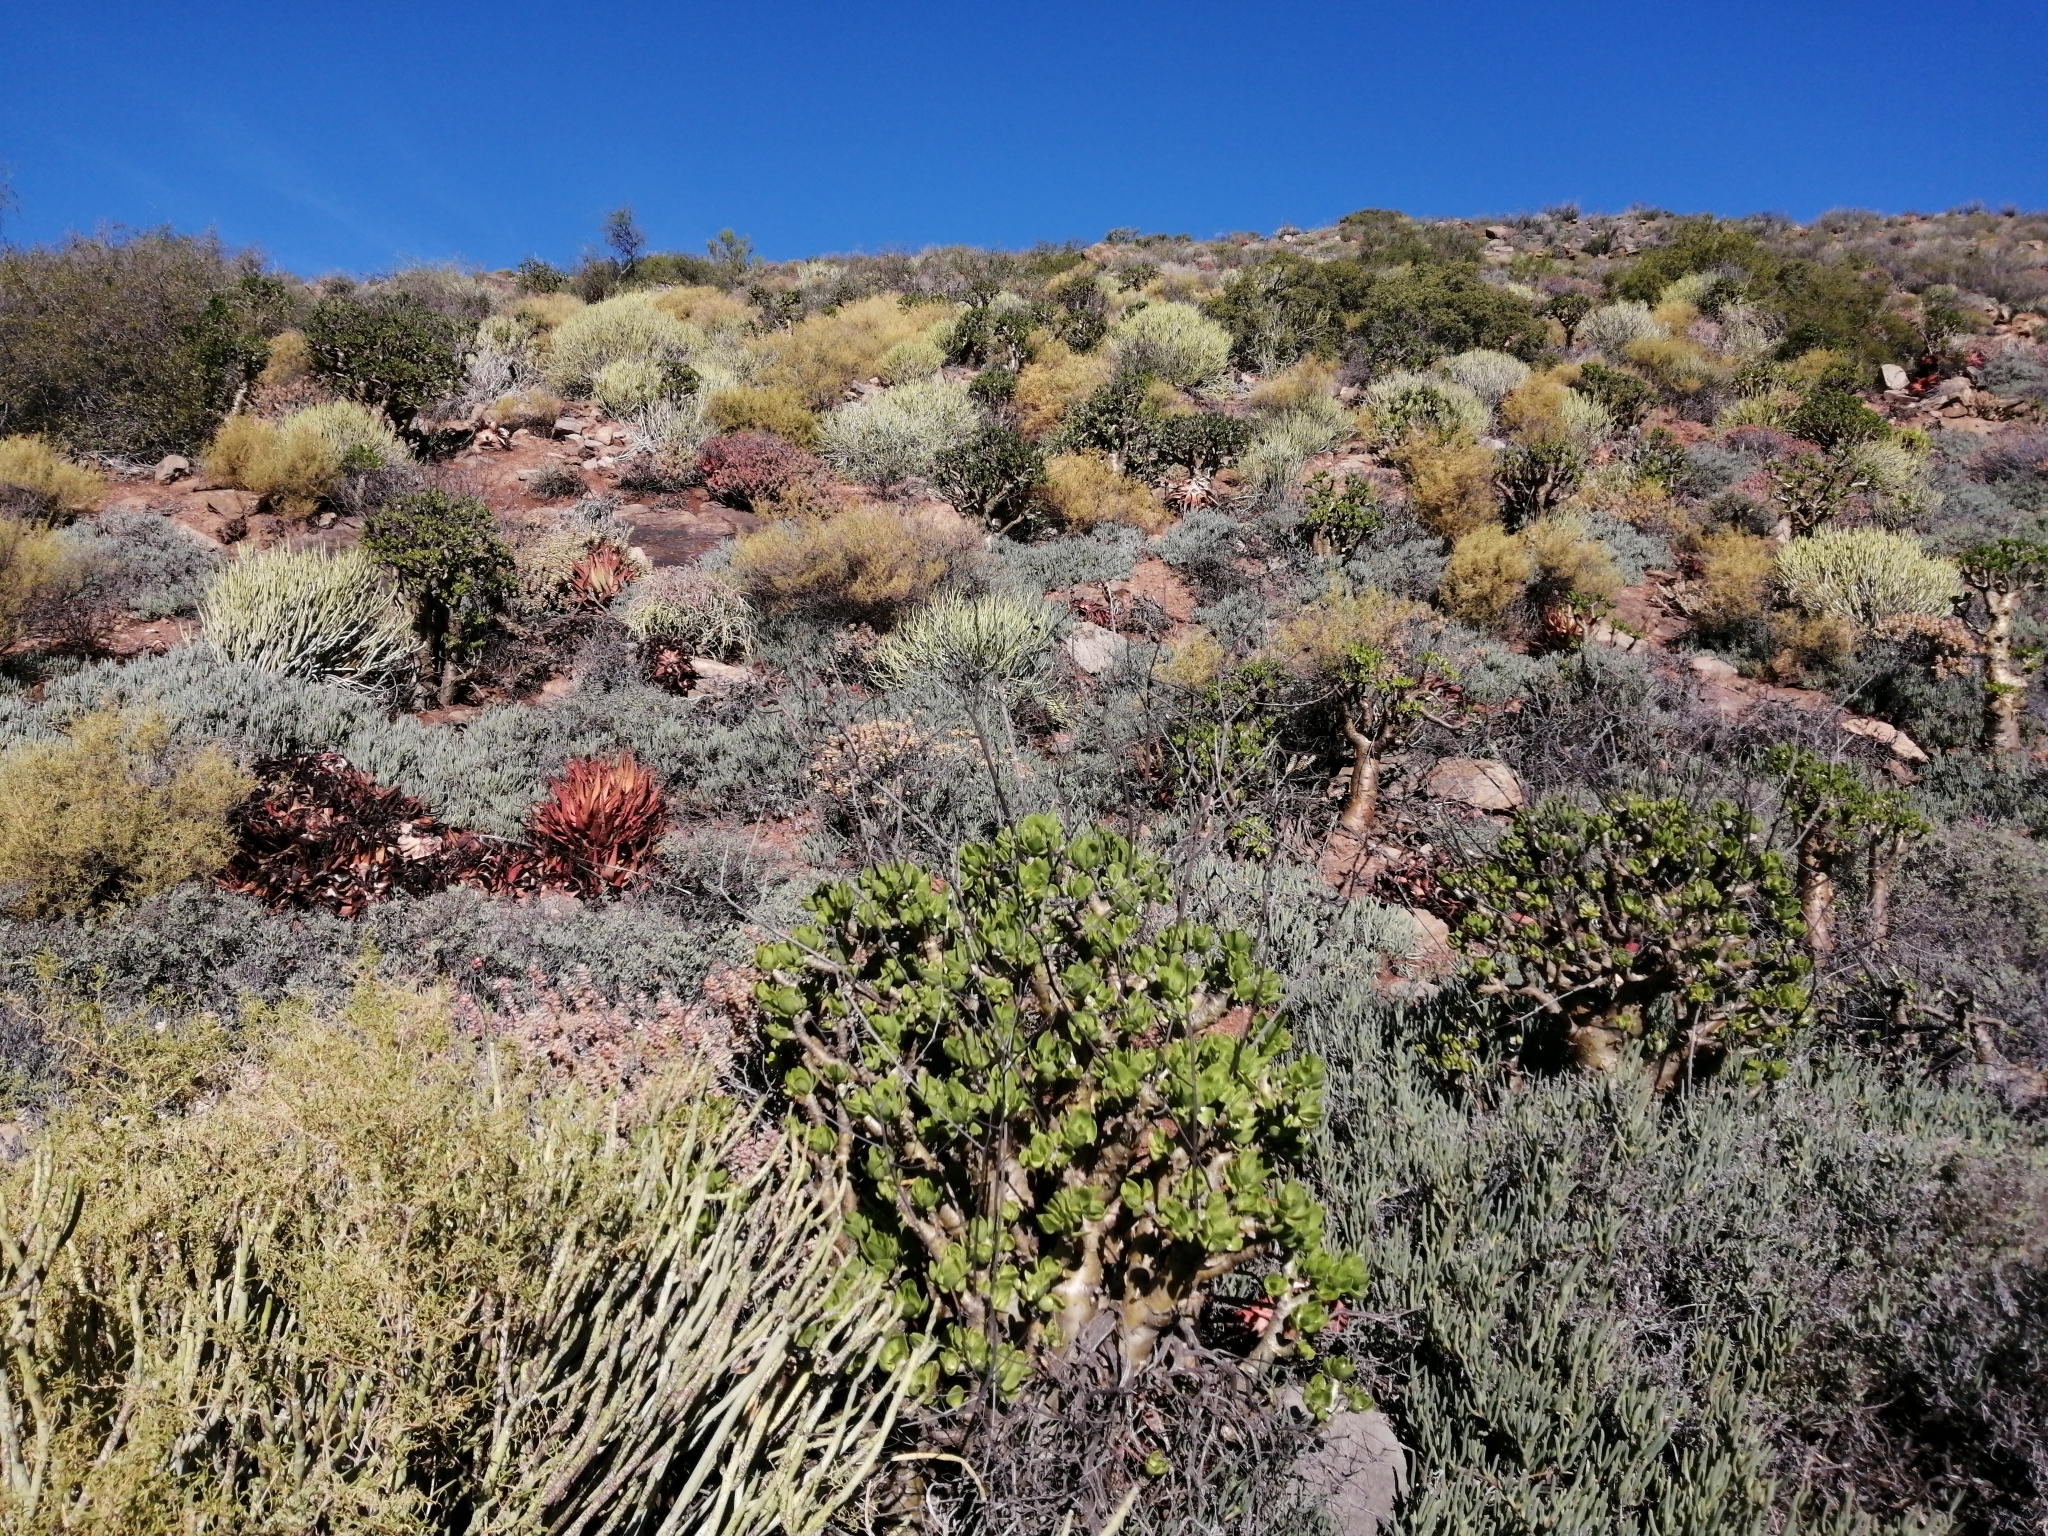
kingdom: Plantae
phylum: Tracheophyta
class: Liliopsida
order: Asparagales
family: Asphodelaceae
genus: Aloe
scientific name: Aloe microstigma
